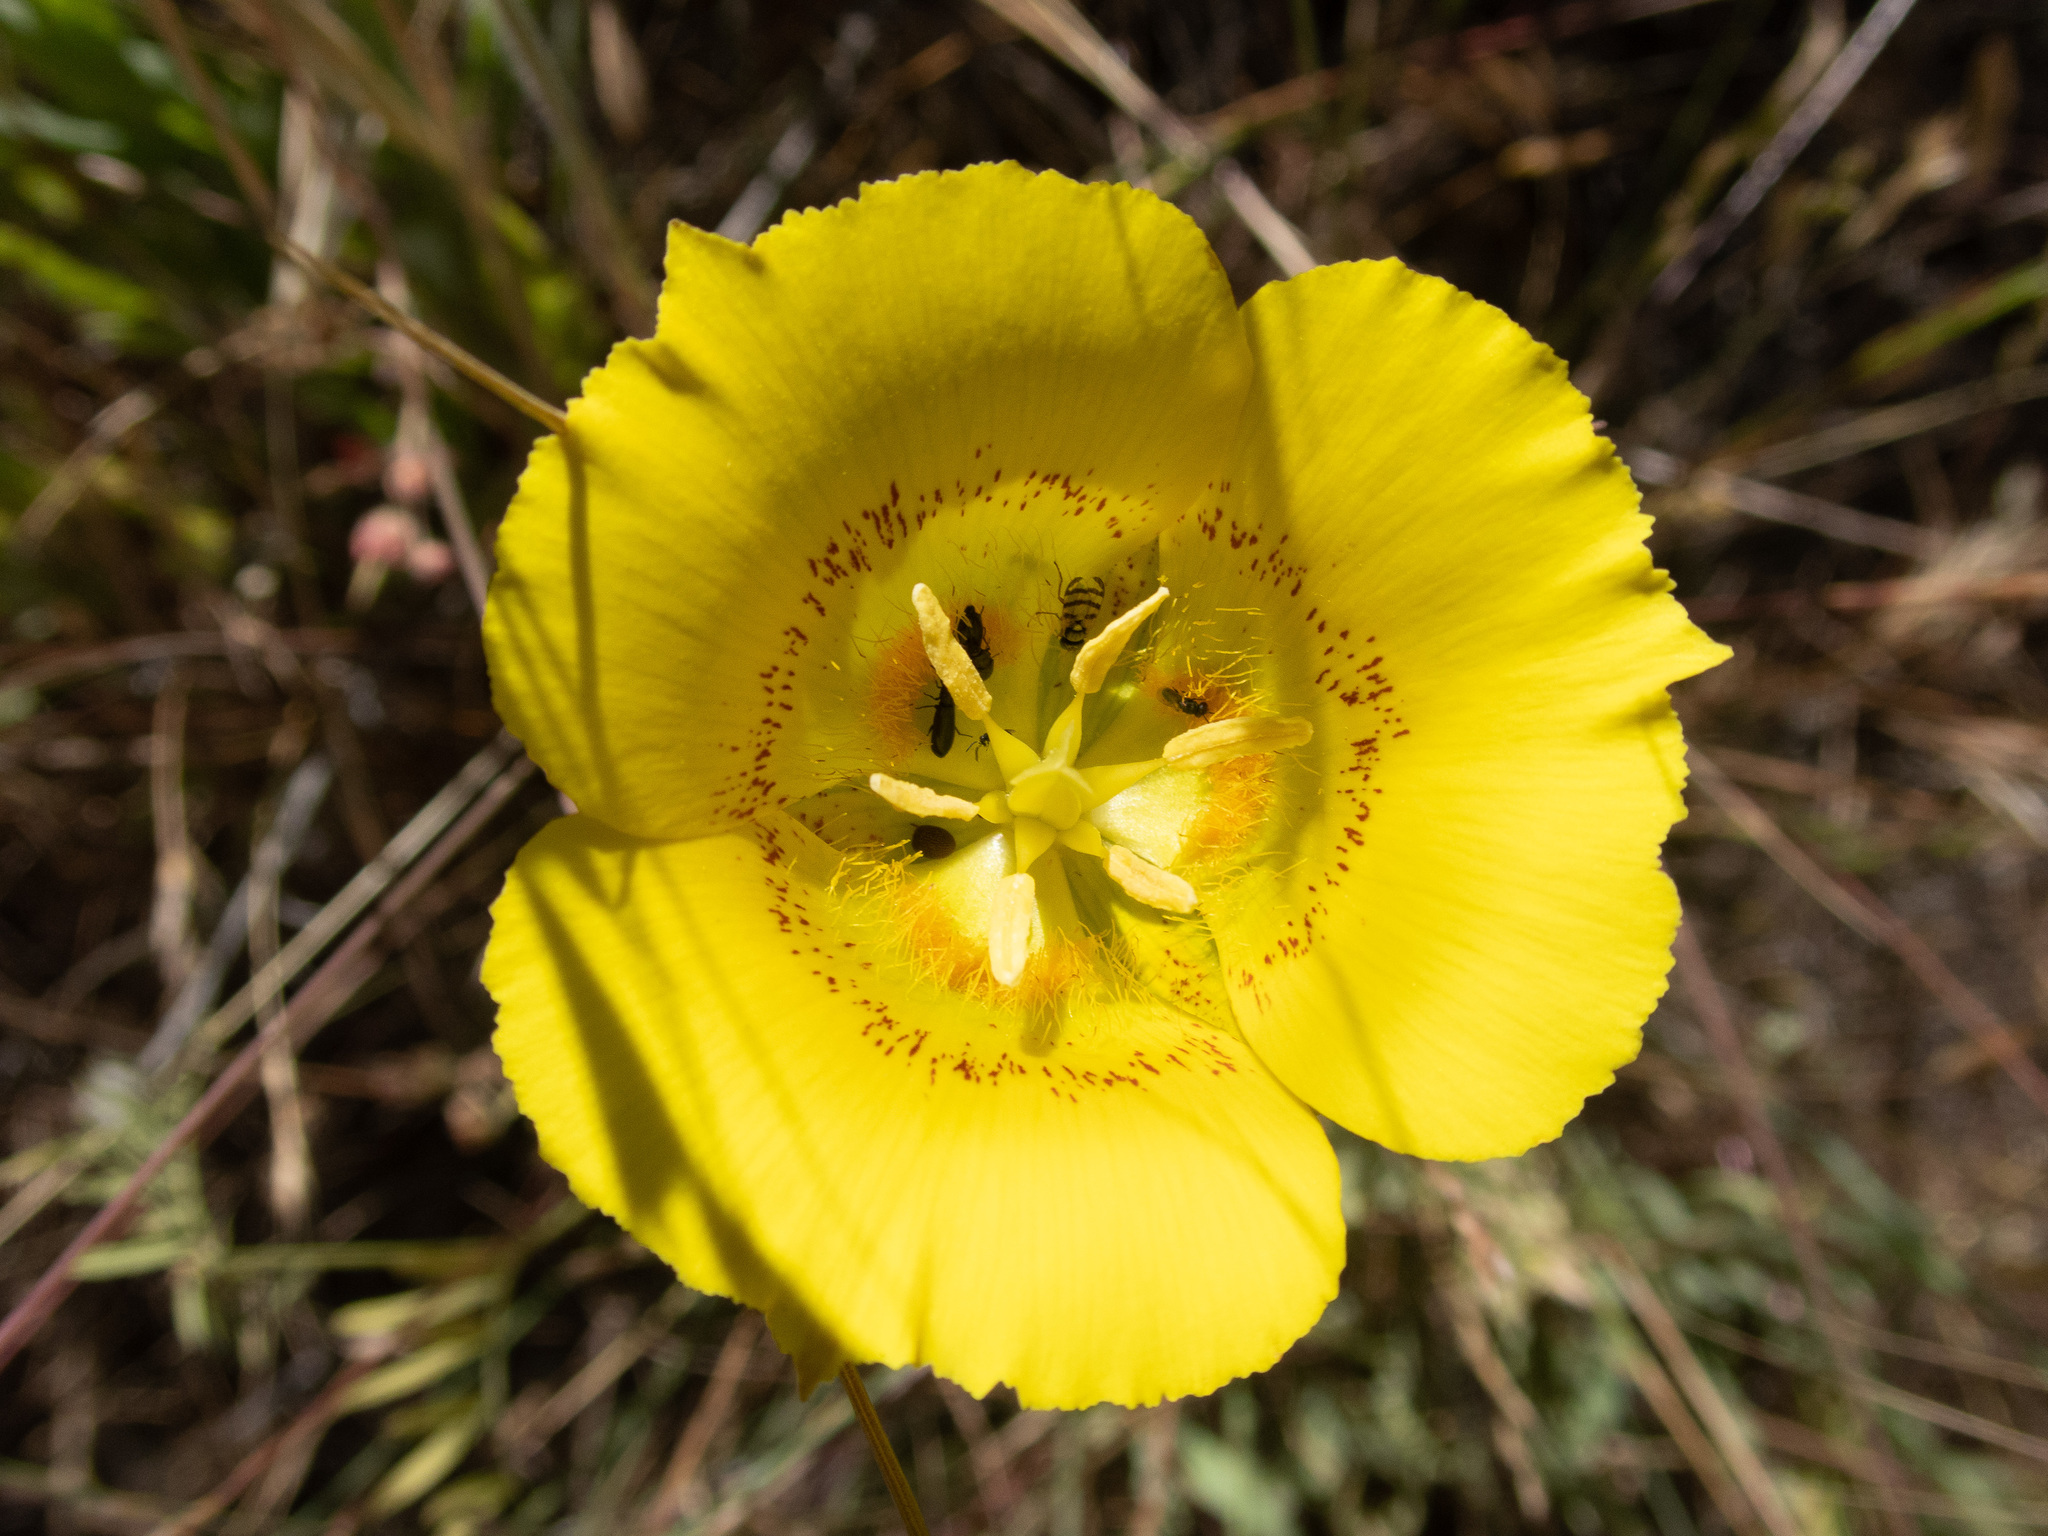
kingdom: Plantae
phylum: Tracheophyta
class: Liliopsida
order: Liliales
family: Liliaceae
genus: Calochortus
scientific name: Calochortus luteus
